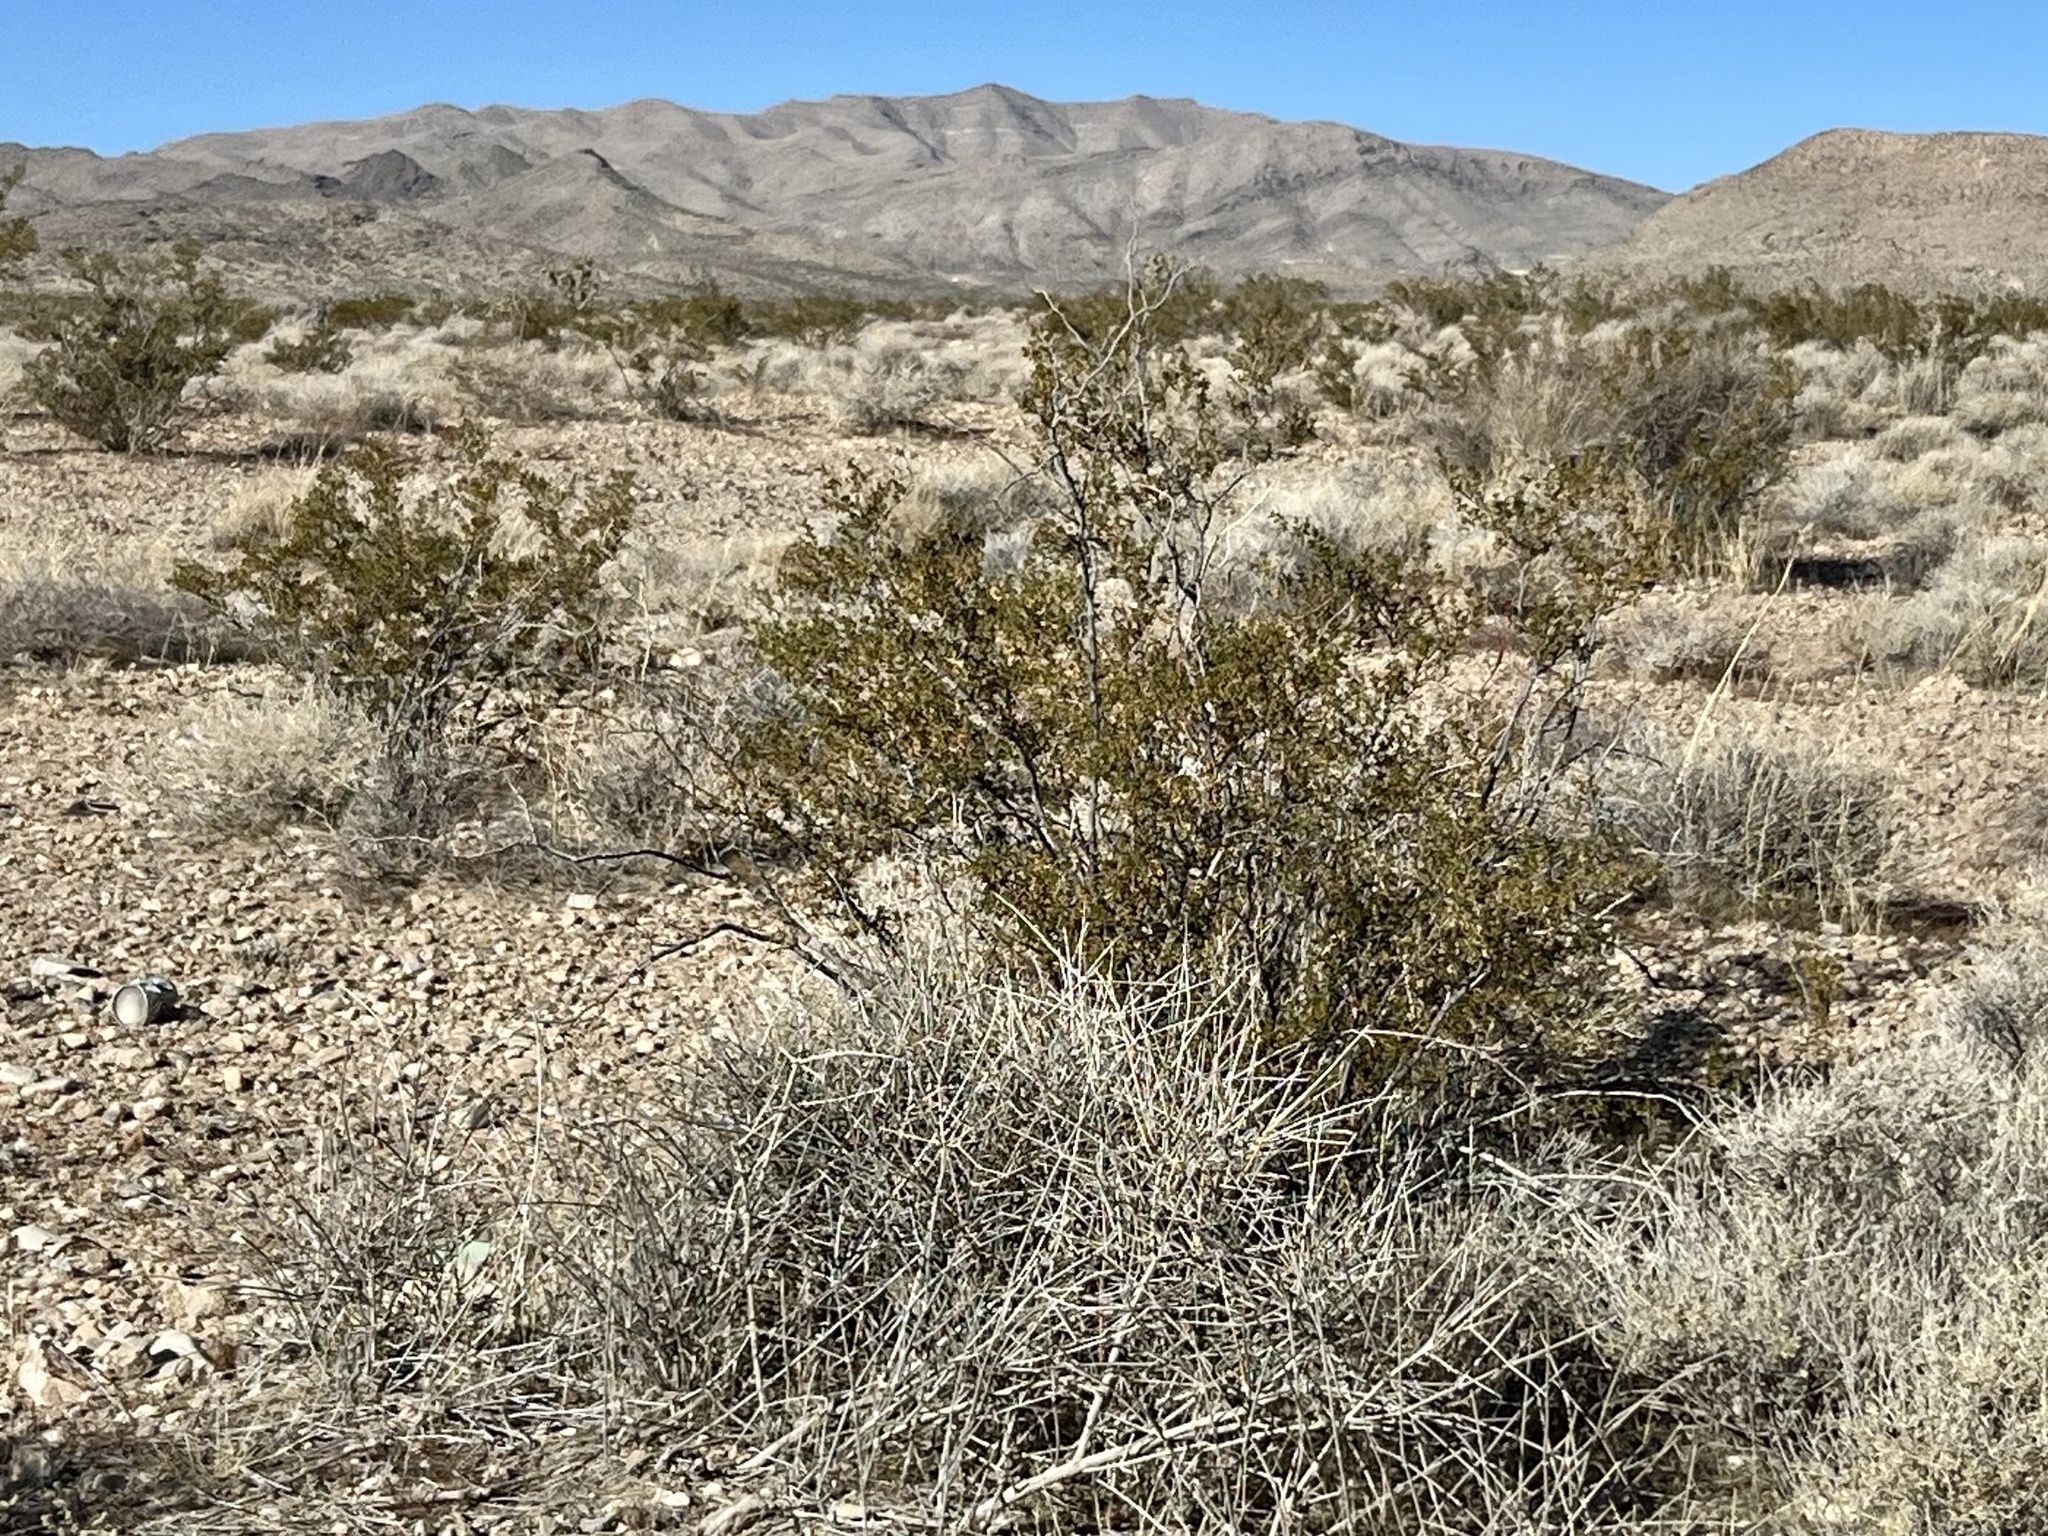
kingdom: Plantae
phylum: Tracheophyta
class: Magnoliopsida
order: Zygophyllales
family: Zygophyllaceae
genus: Larrea
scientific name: Larrea tridentata
